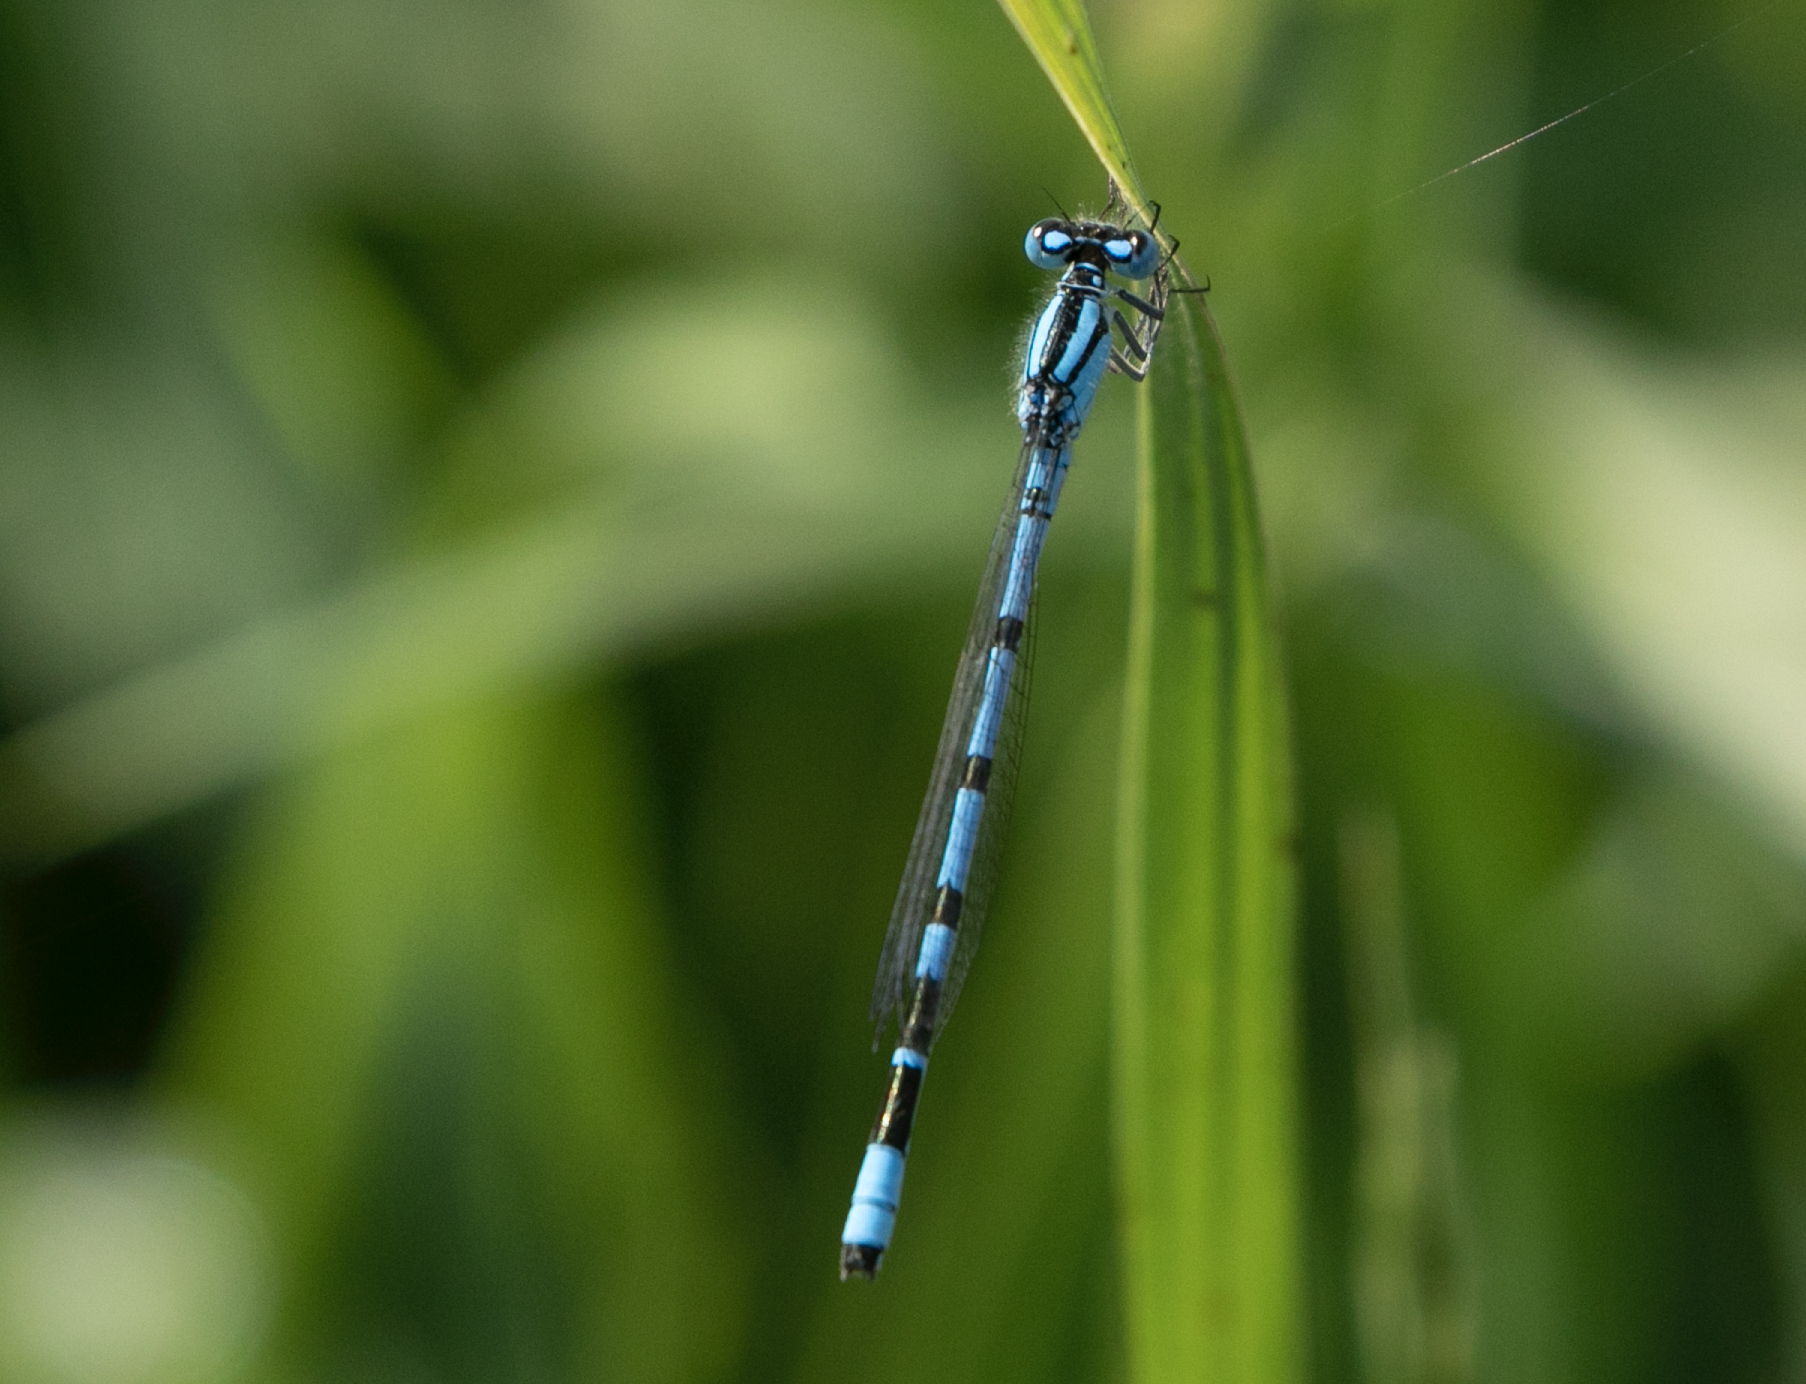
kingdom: Animalia
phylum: Arthropoda
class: Insecta
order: Odonata
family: Coenagrionidae
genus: Enallagma
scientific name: Enallagma cyathigerum
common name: Common blue damselfly
